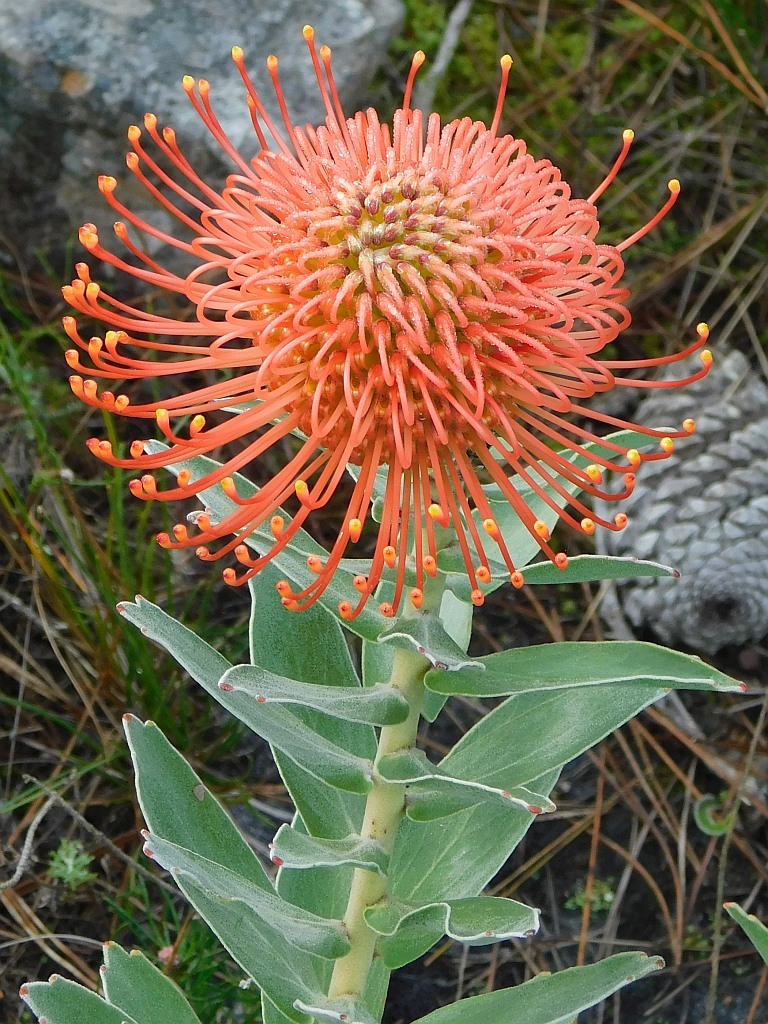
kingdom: Plantae
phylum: Tracheophyta
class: Magnoliopsida
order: Proteales
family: Proteaceae
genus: Leucospermum
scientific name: Leucospermum cordifolium
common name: Red pincushion-protea
